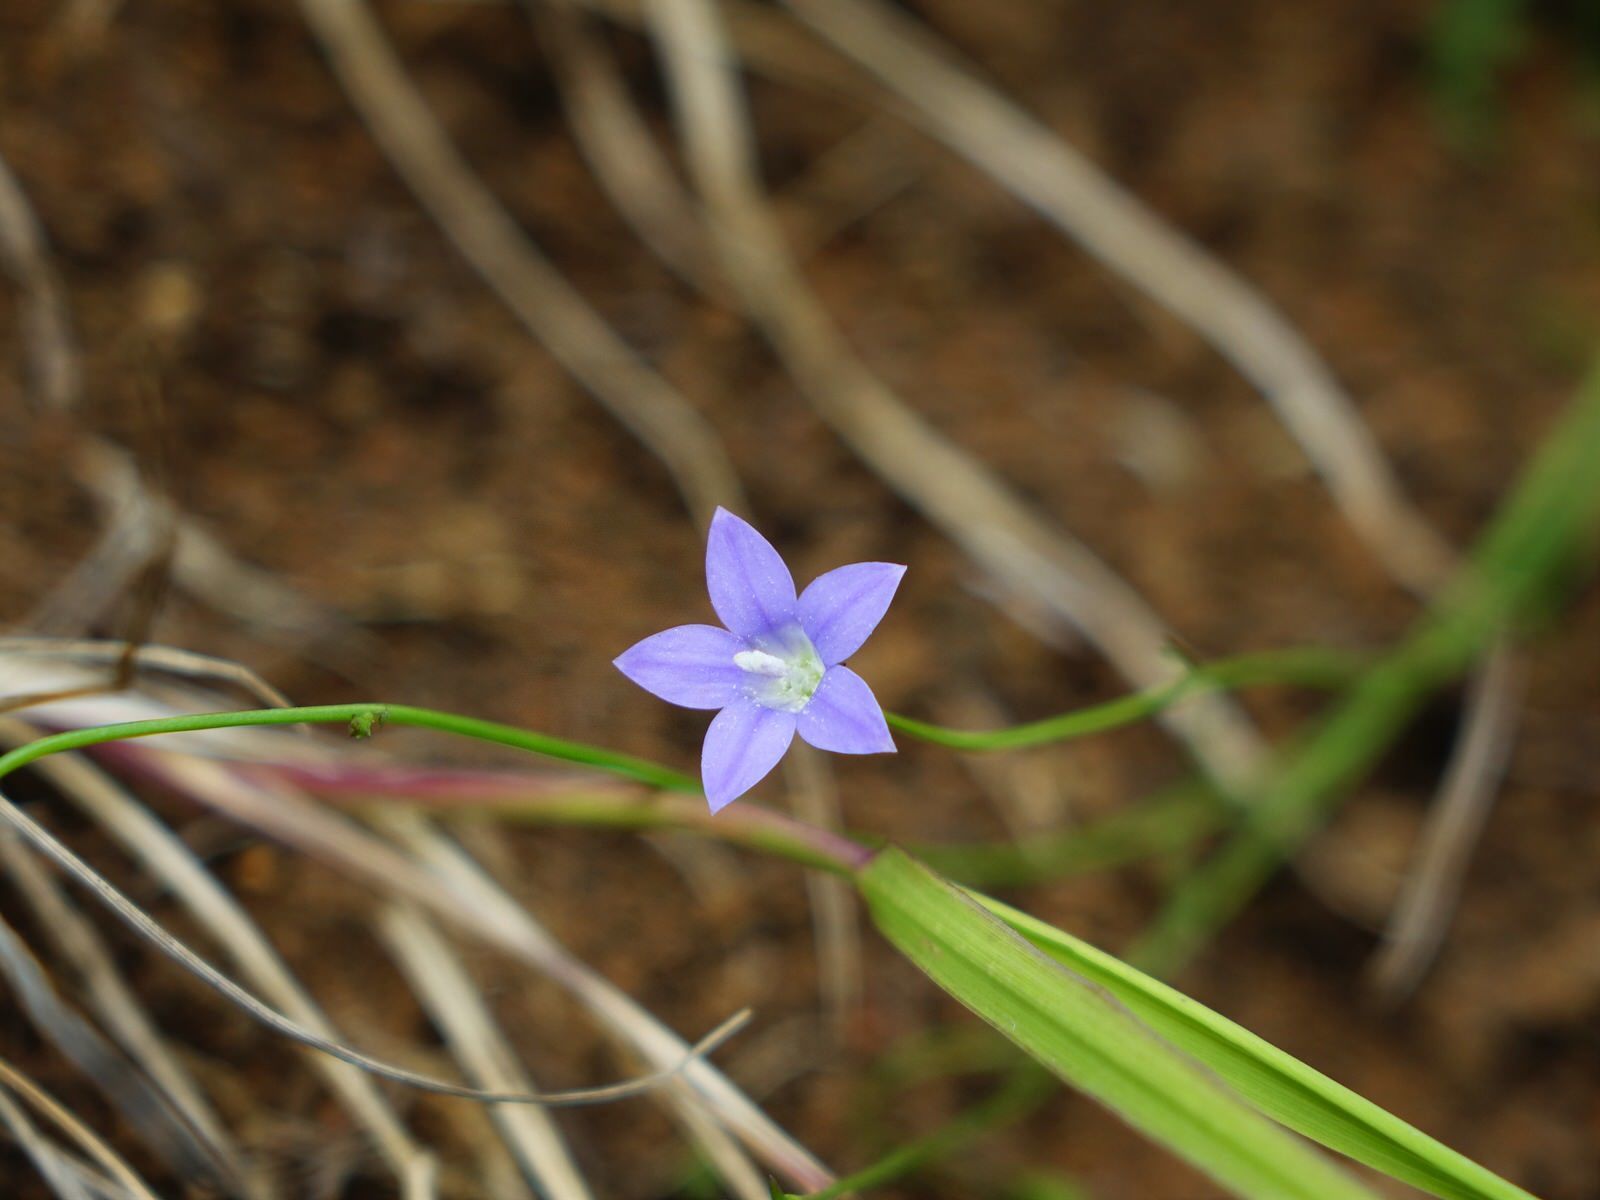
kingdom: Plantae
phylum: Tracheophyta
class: Magnoliopsida
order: Asterales
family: Campanulaceae
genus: Wahlenbergia
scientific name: Wahlenbergia violacea
